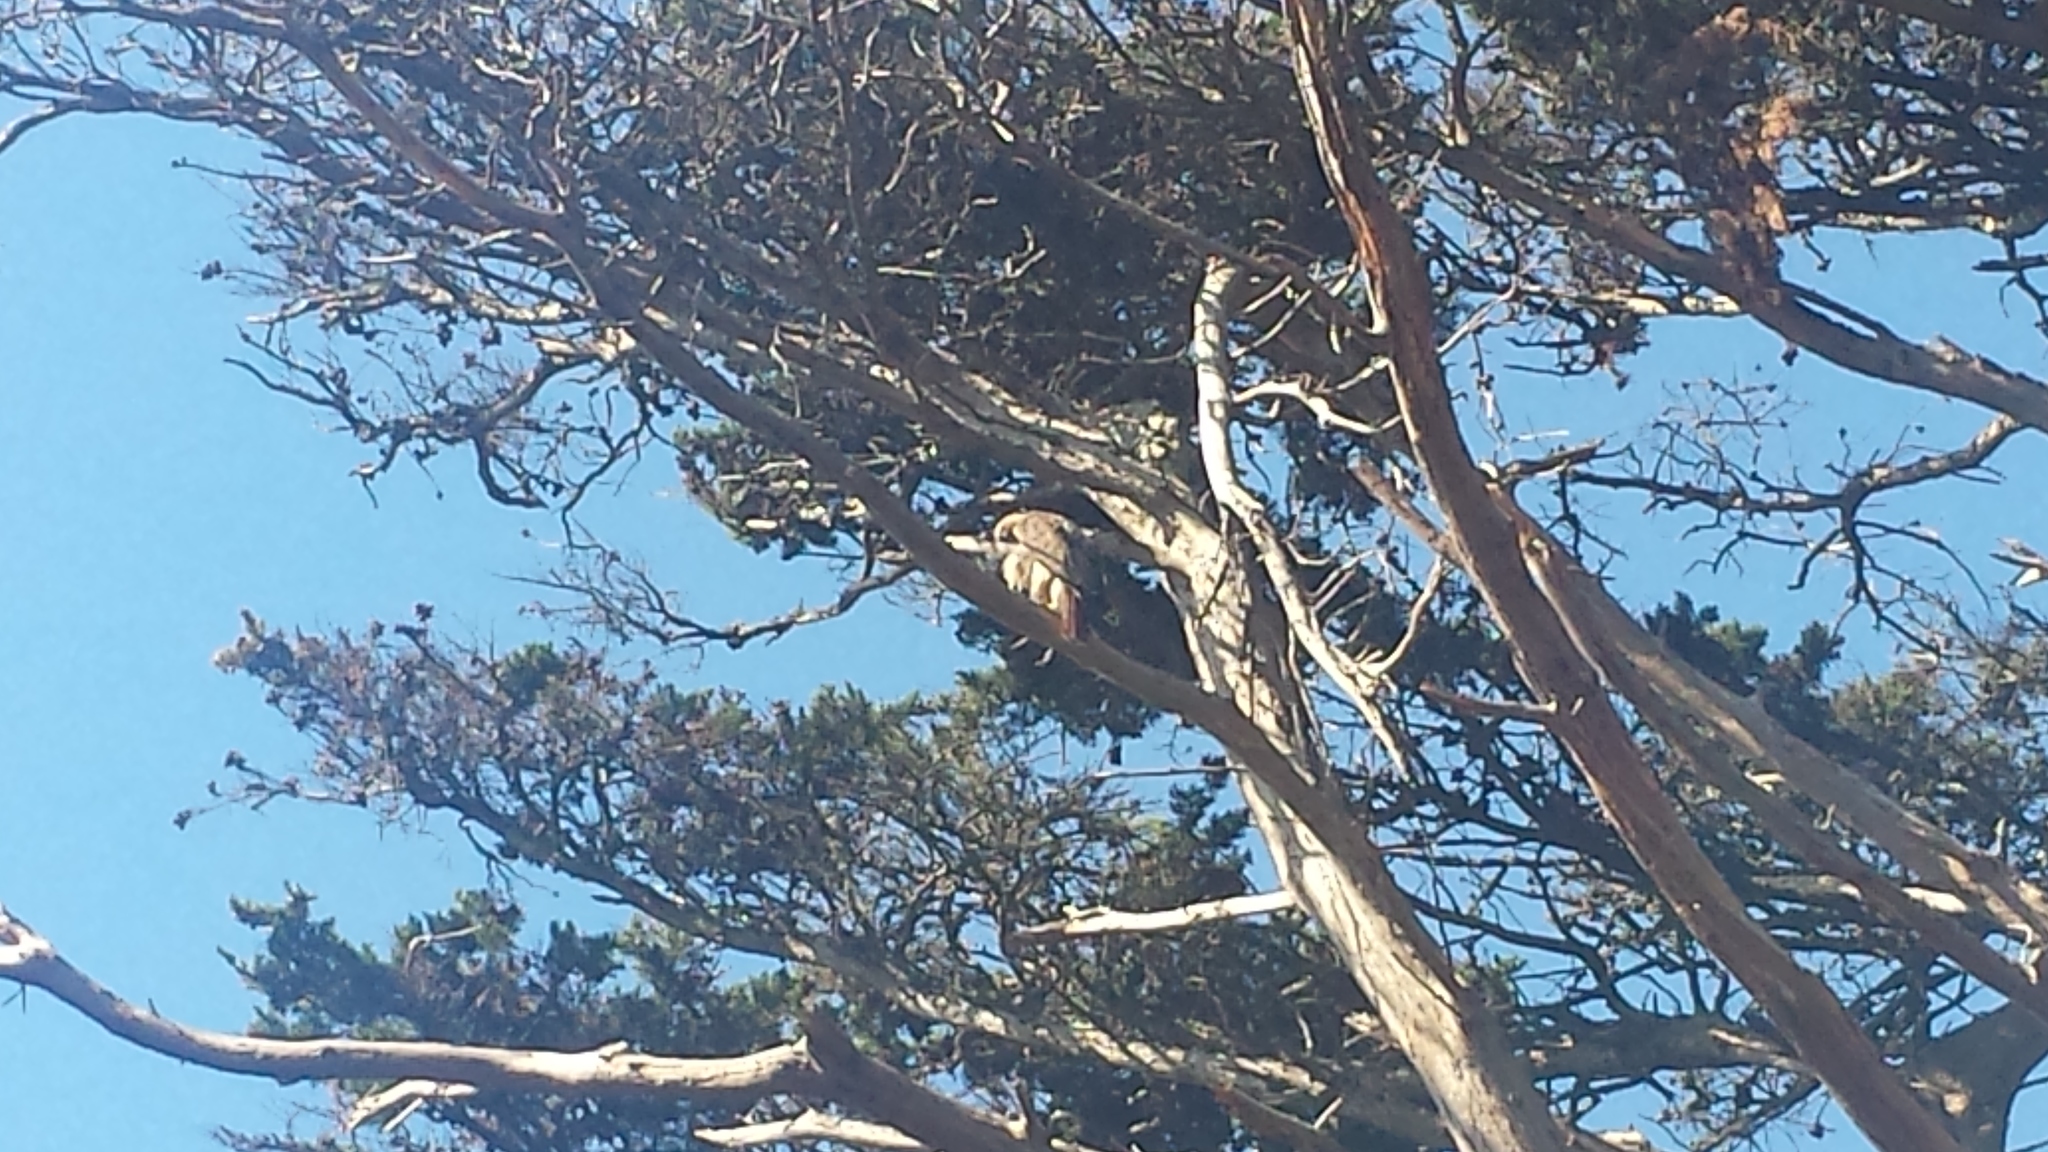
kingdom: Animalia
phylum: Chordata
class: Aves
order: Accipitriformes
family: Accipitridae
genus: Buteo
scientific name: Buteo jamaicensis
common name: Red-tailed hawk
